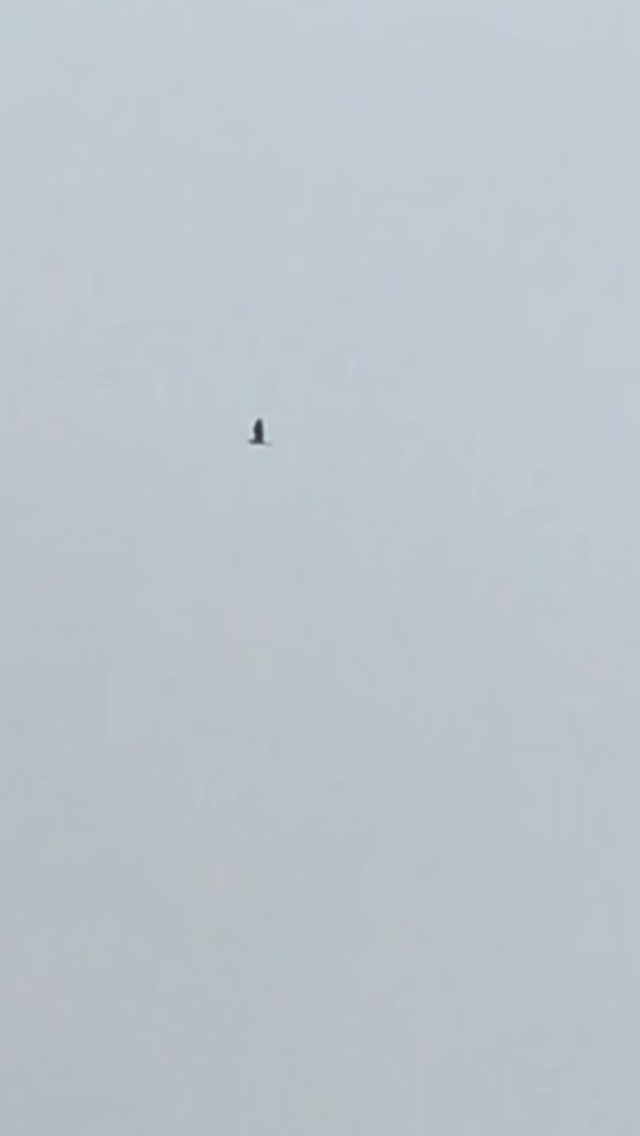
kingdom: Animalia
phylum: Chordata
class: Aves
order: Pelecaniformes
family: Ardeidae
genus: Ardea
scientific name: Ardea herodias
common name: Great blue heron
